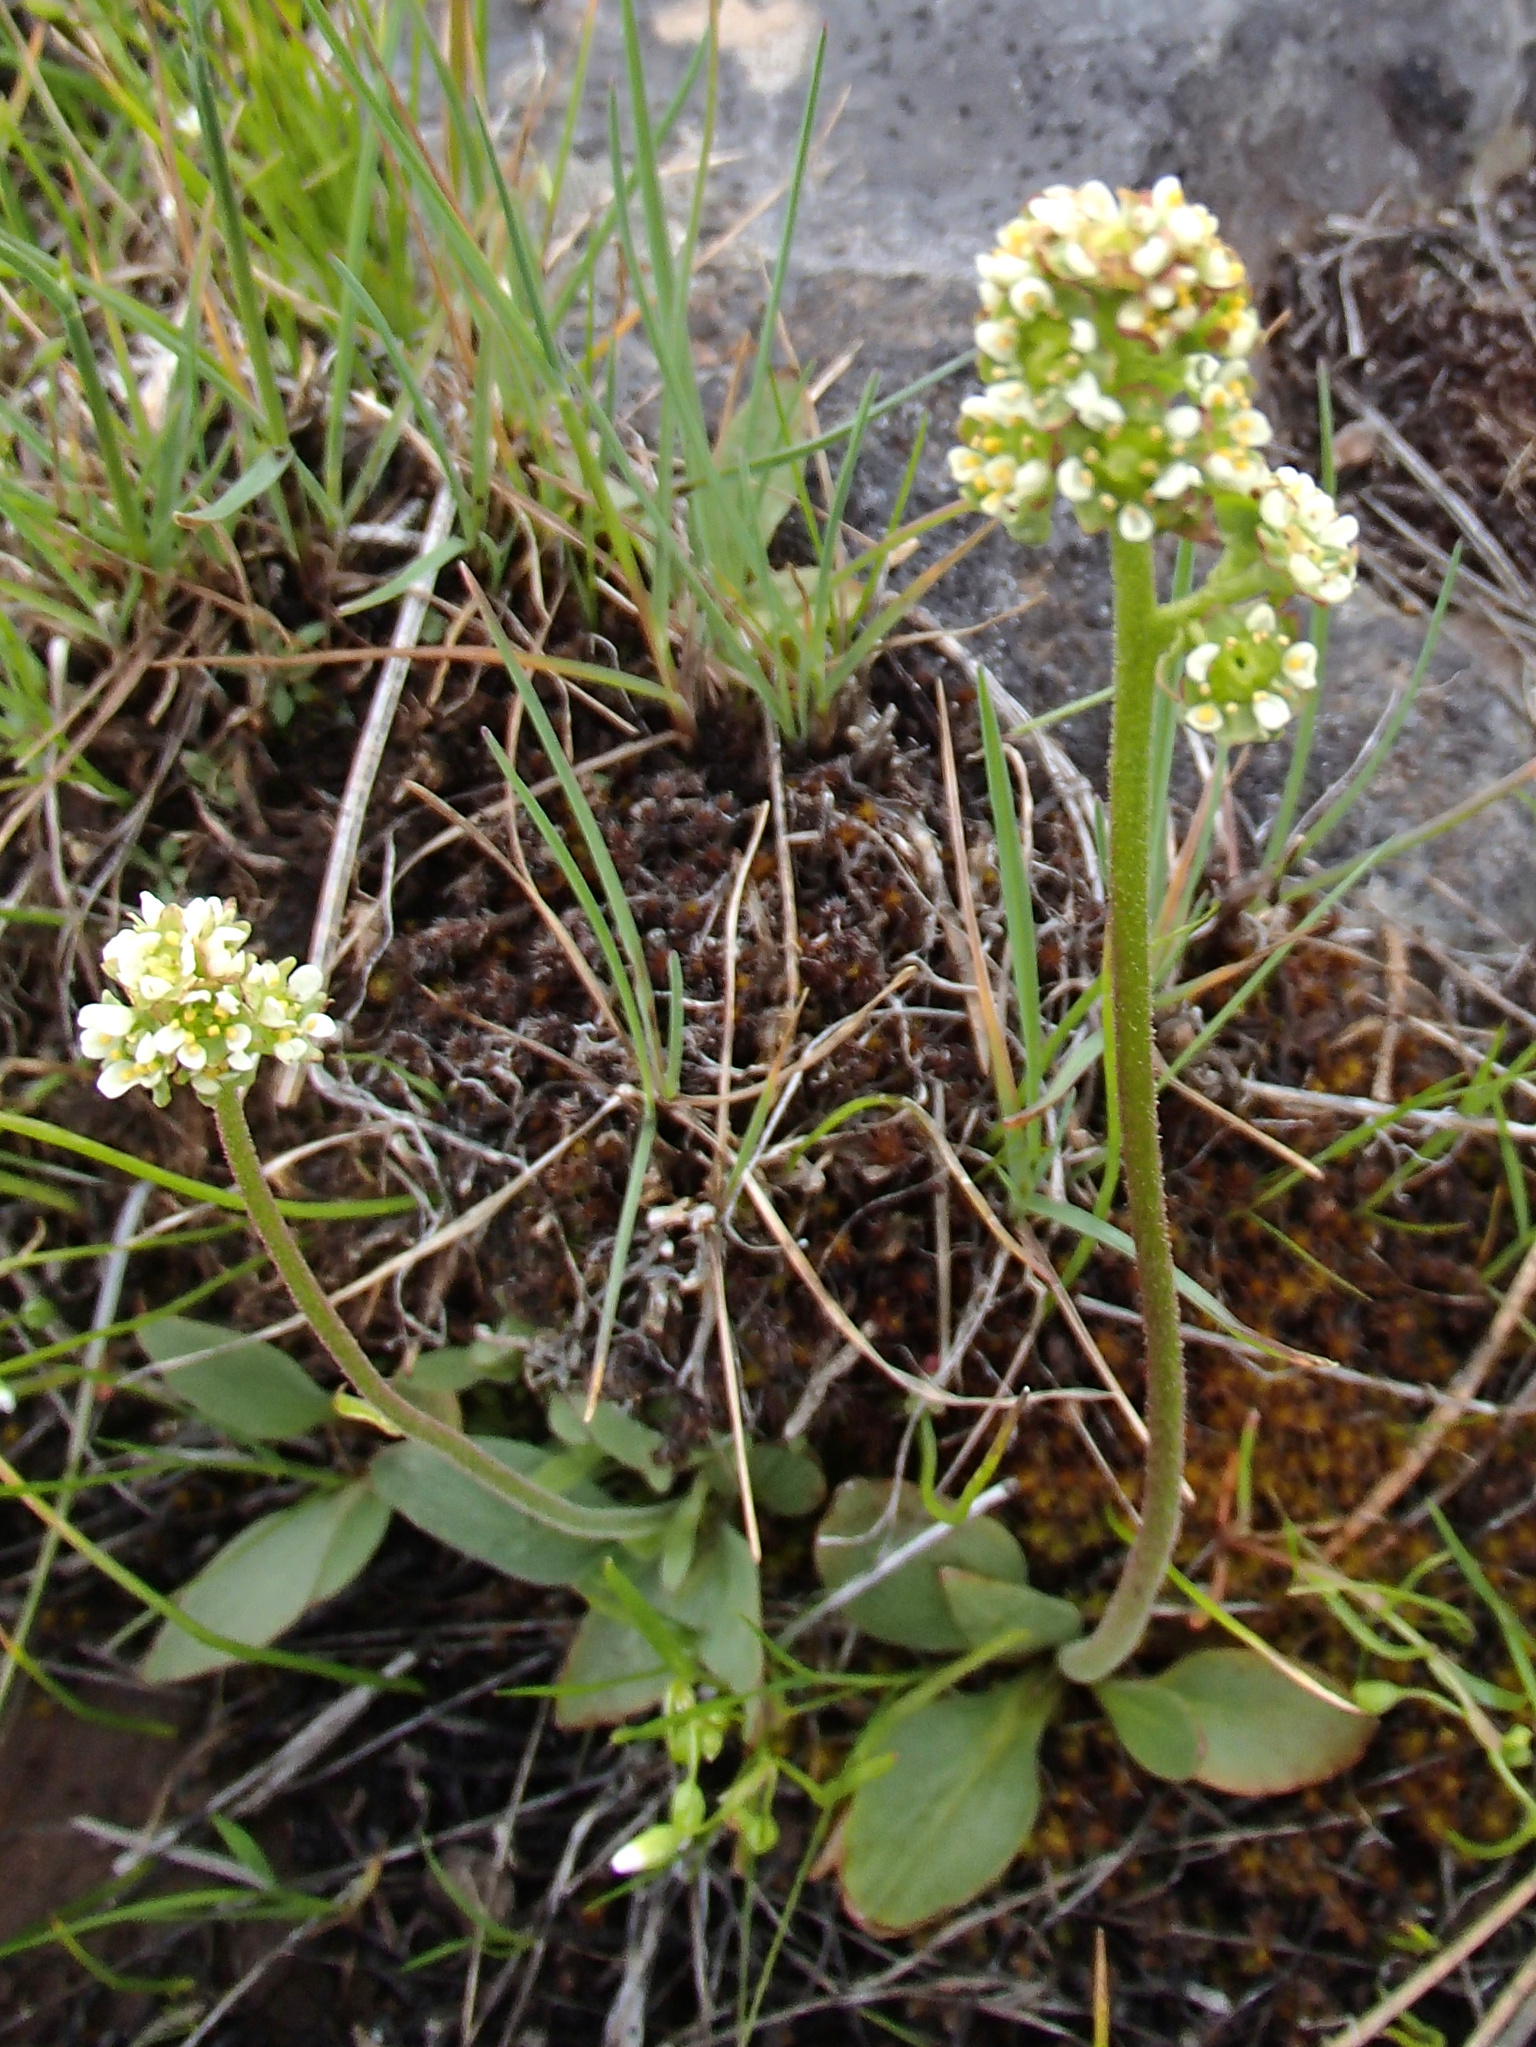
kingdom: Plantae
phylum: Tracheophyta
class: Magnoliopsida
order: Saxifragales
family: Saxifragaceae
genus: Micranthes
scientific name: Micranthes integrifolia
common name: Wholeleaf saxifrage
